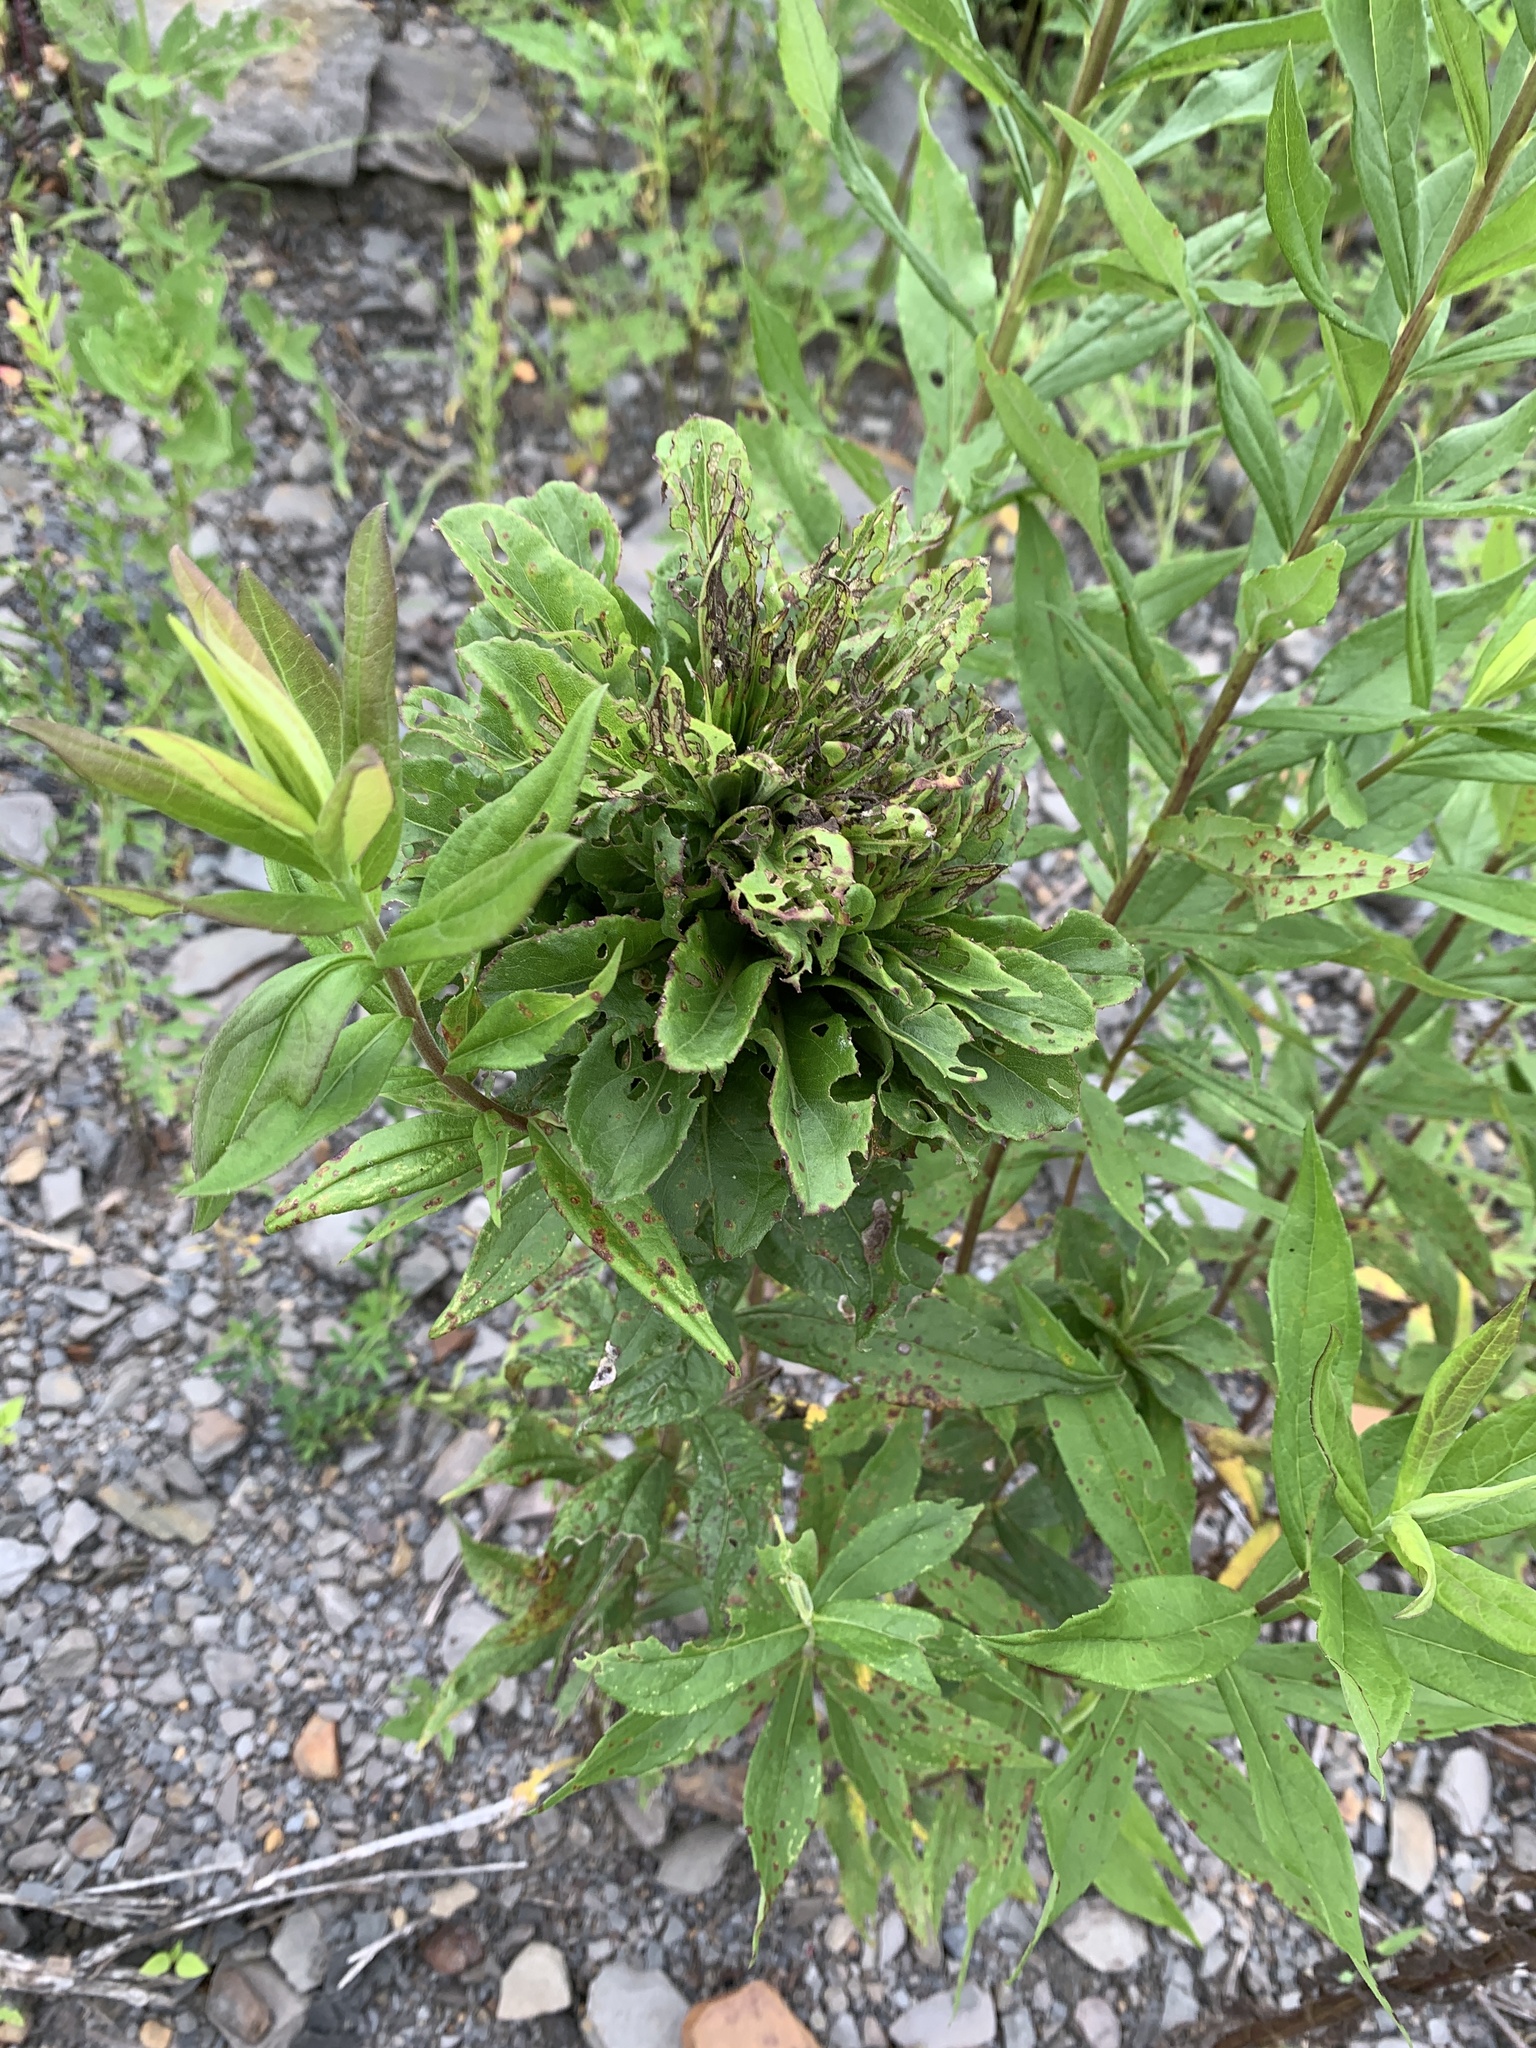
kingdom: Animalia
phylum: Arthropoda
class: Insecta
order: Diptera
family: Cecidomyiidae
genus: Rhopalomyia
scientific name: Rhopalomyia solidaginis
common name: Goldenrod bunch gall midge
